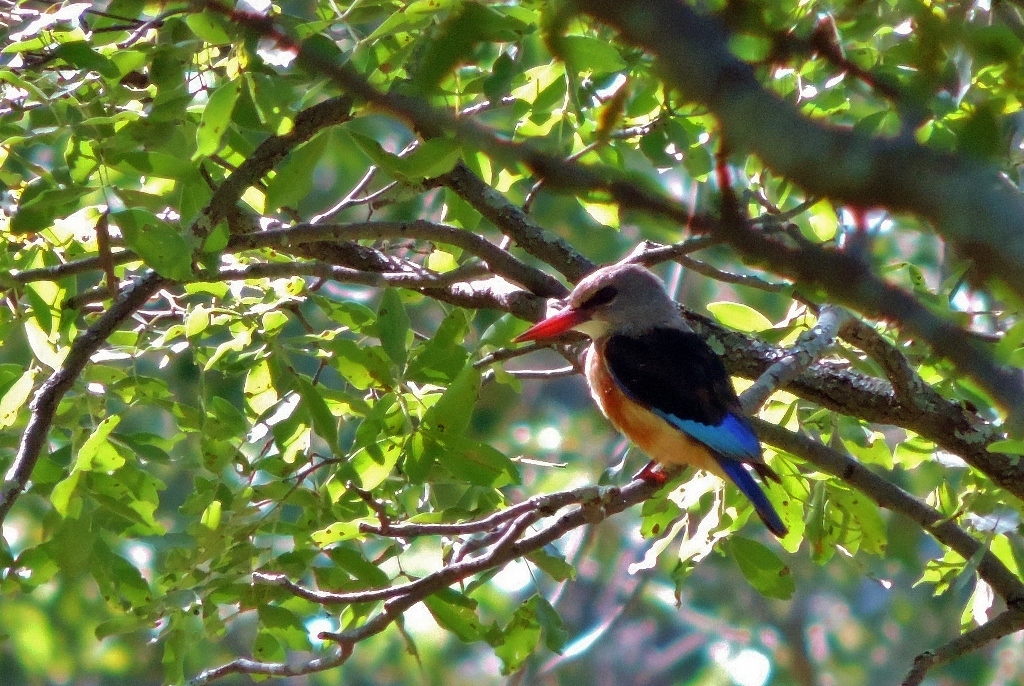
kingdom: Animalia
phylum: Chordata
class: Aves
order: Coraciiformes
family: Alcedinidae
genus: Halcyon
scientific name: Halcyon leucocephala
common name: Grey-headed kingfisher
